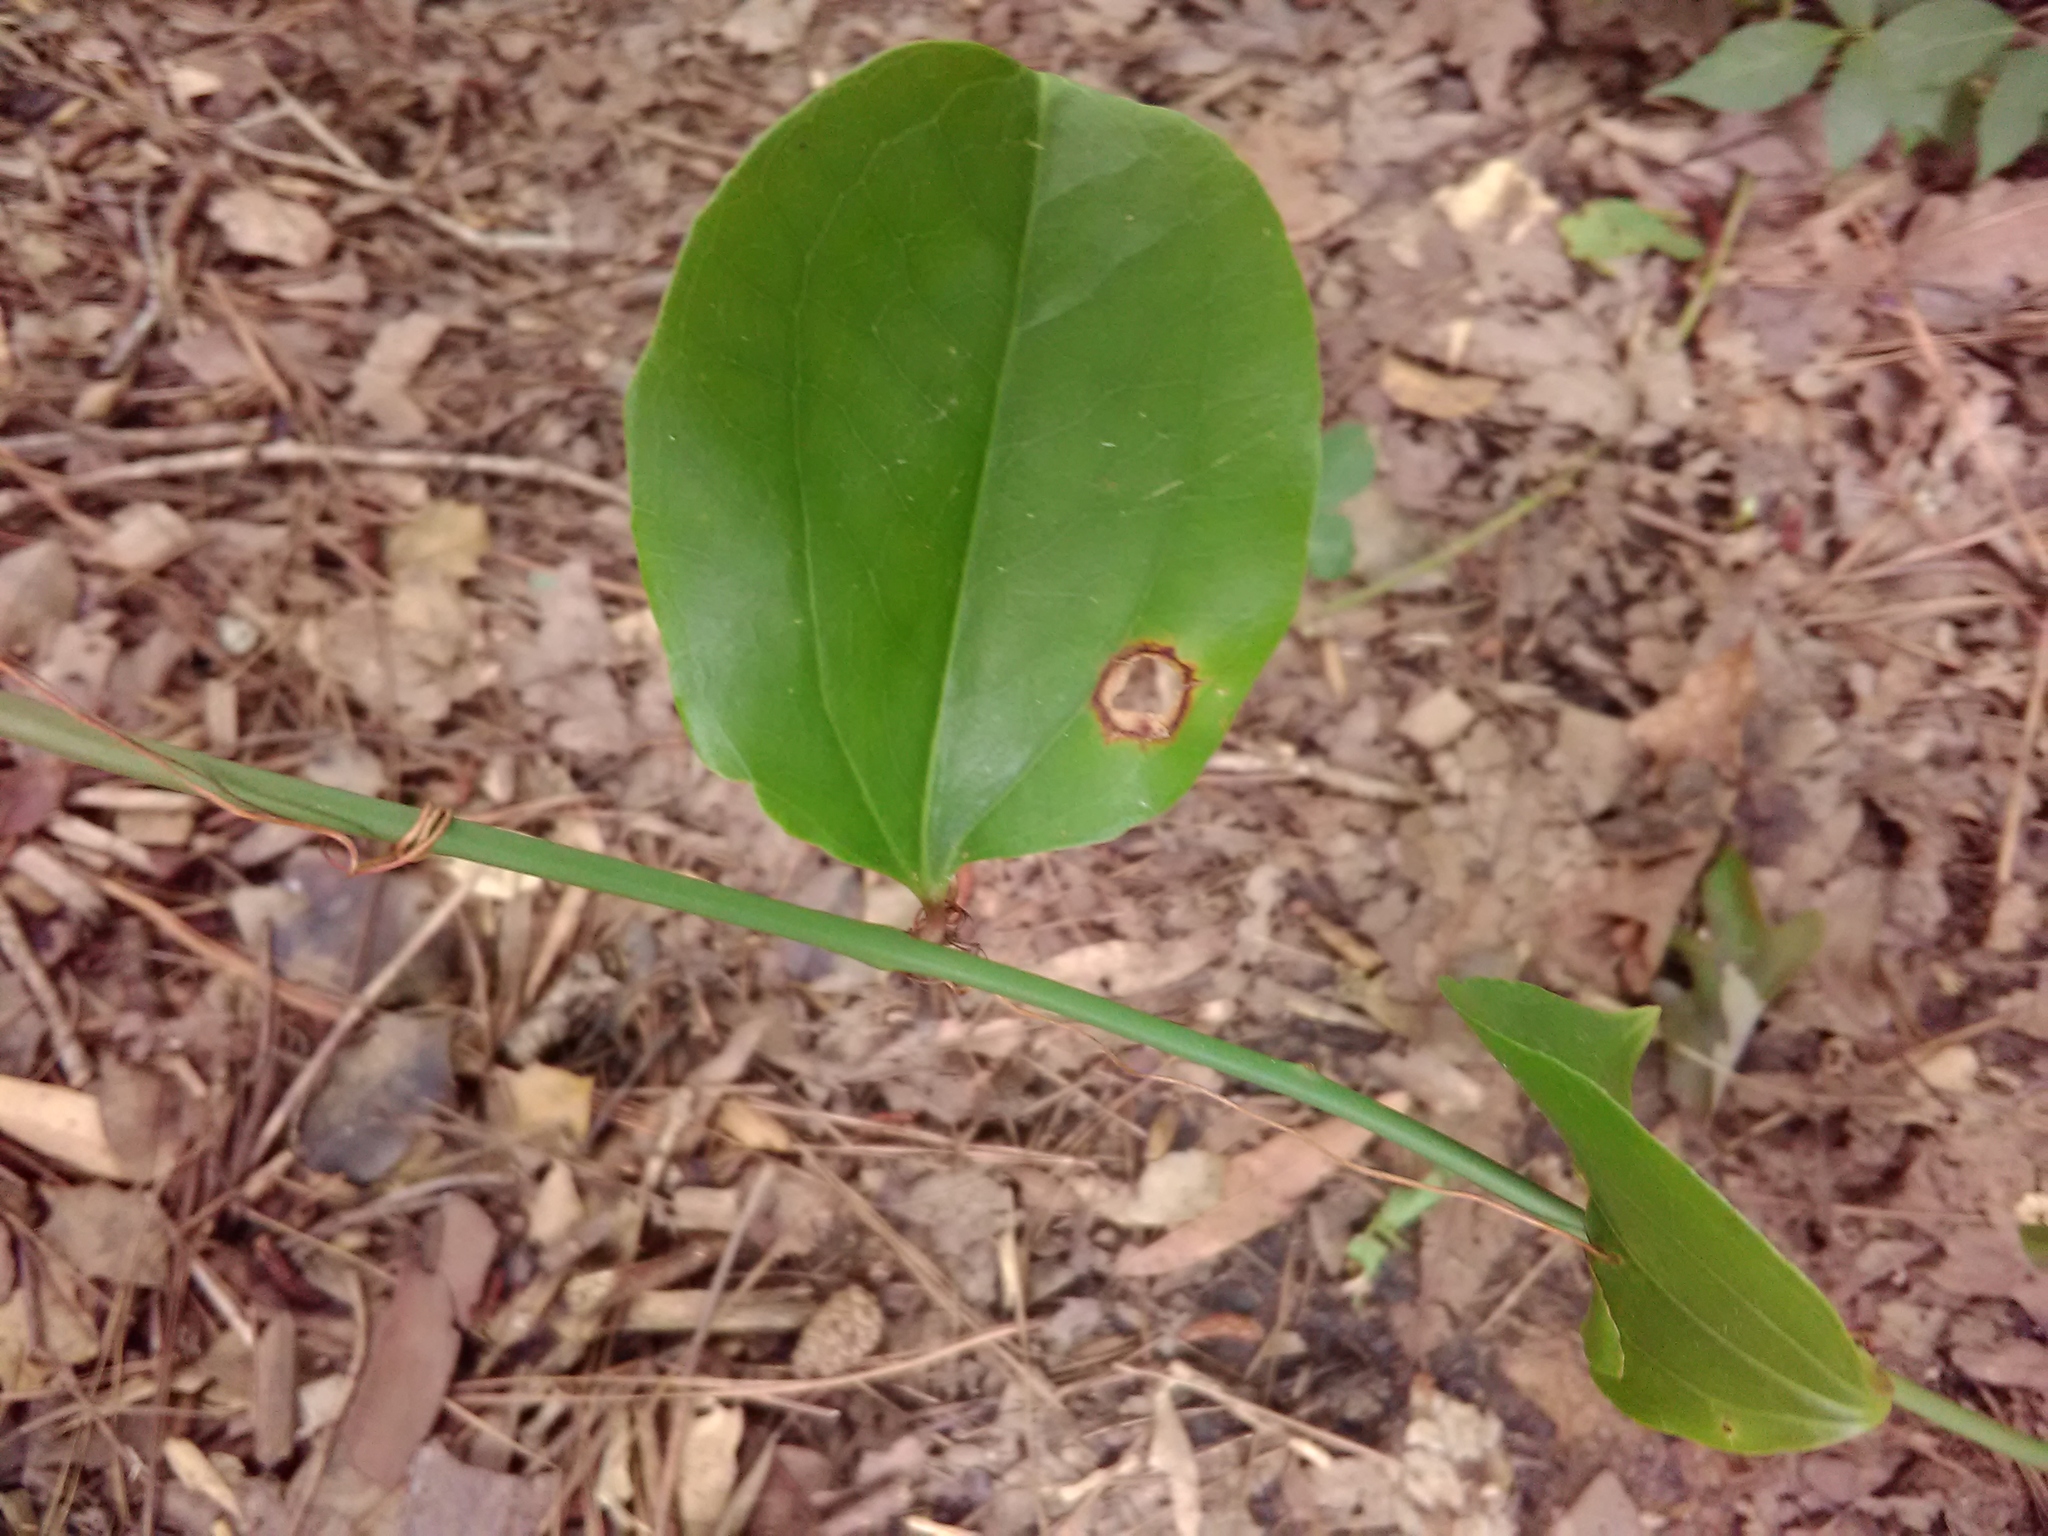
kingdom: Plantae
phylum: Tracheophyta
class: Liliopsida
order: Liliales
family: Smilacaceae
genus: Smilax
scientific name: Smilax rotundifolia
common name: Bullbriar
